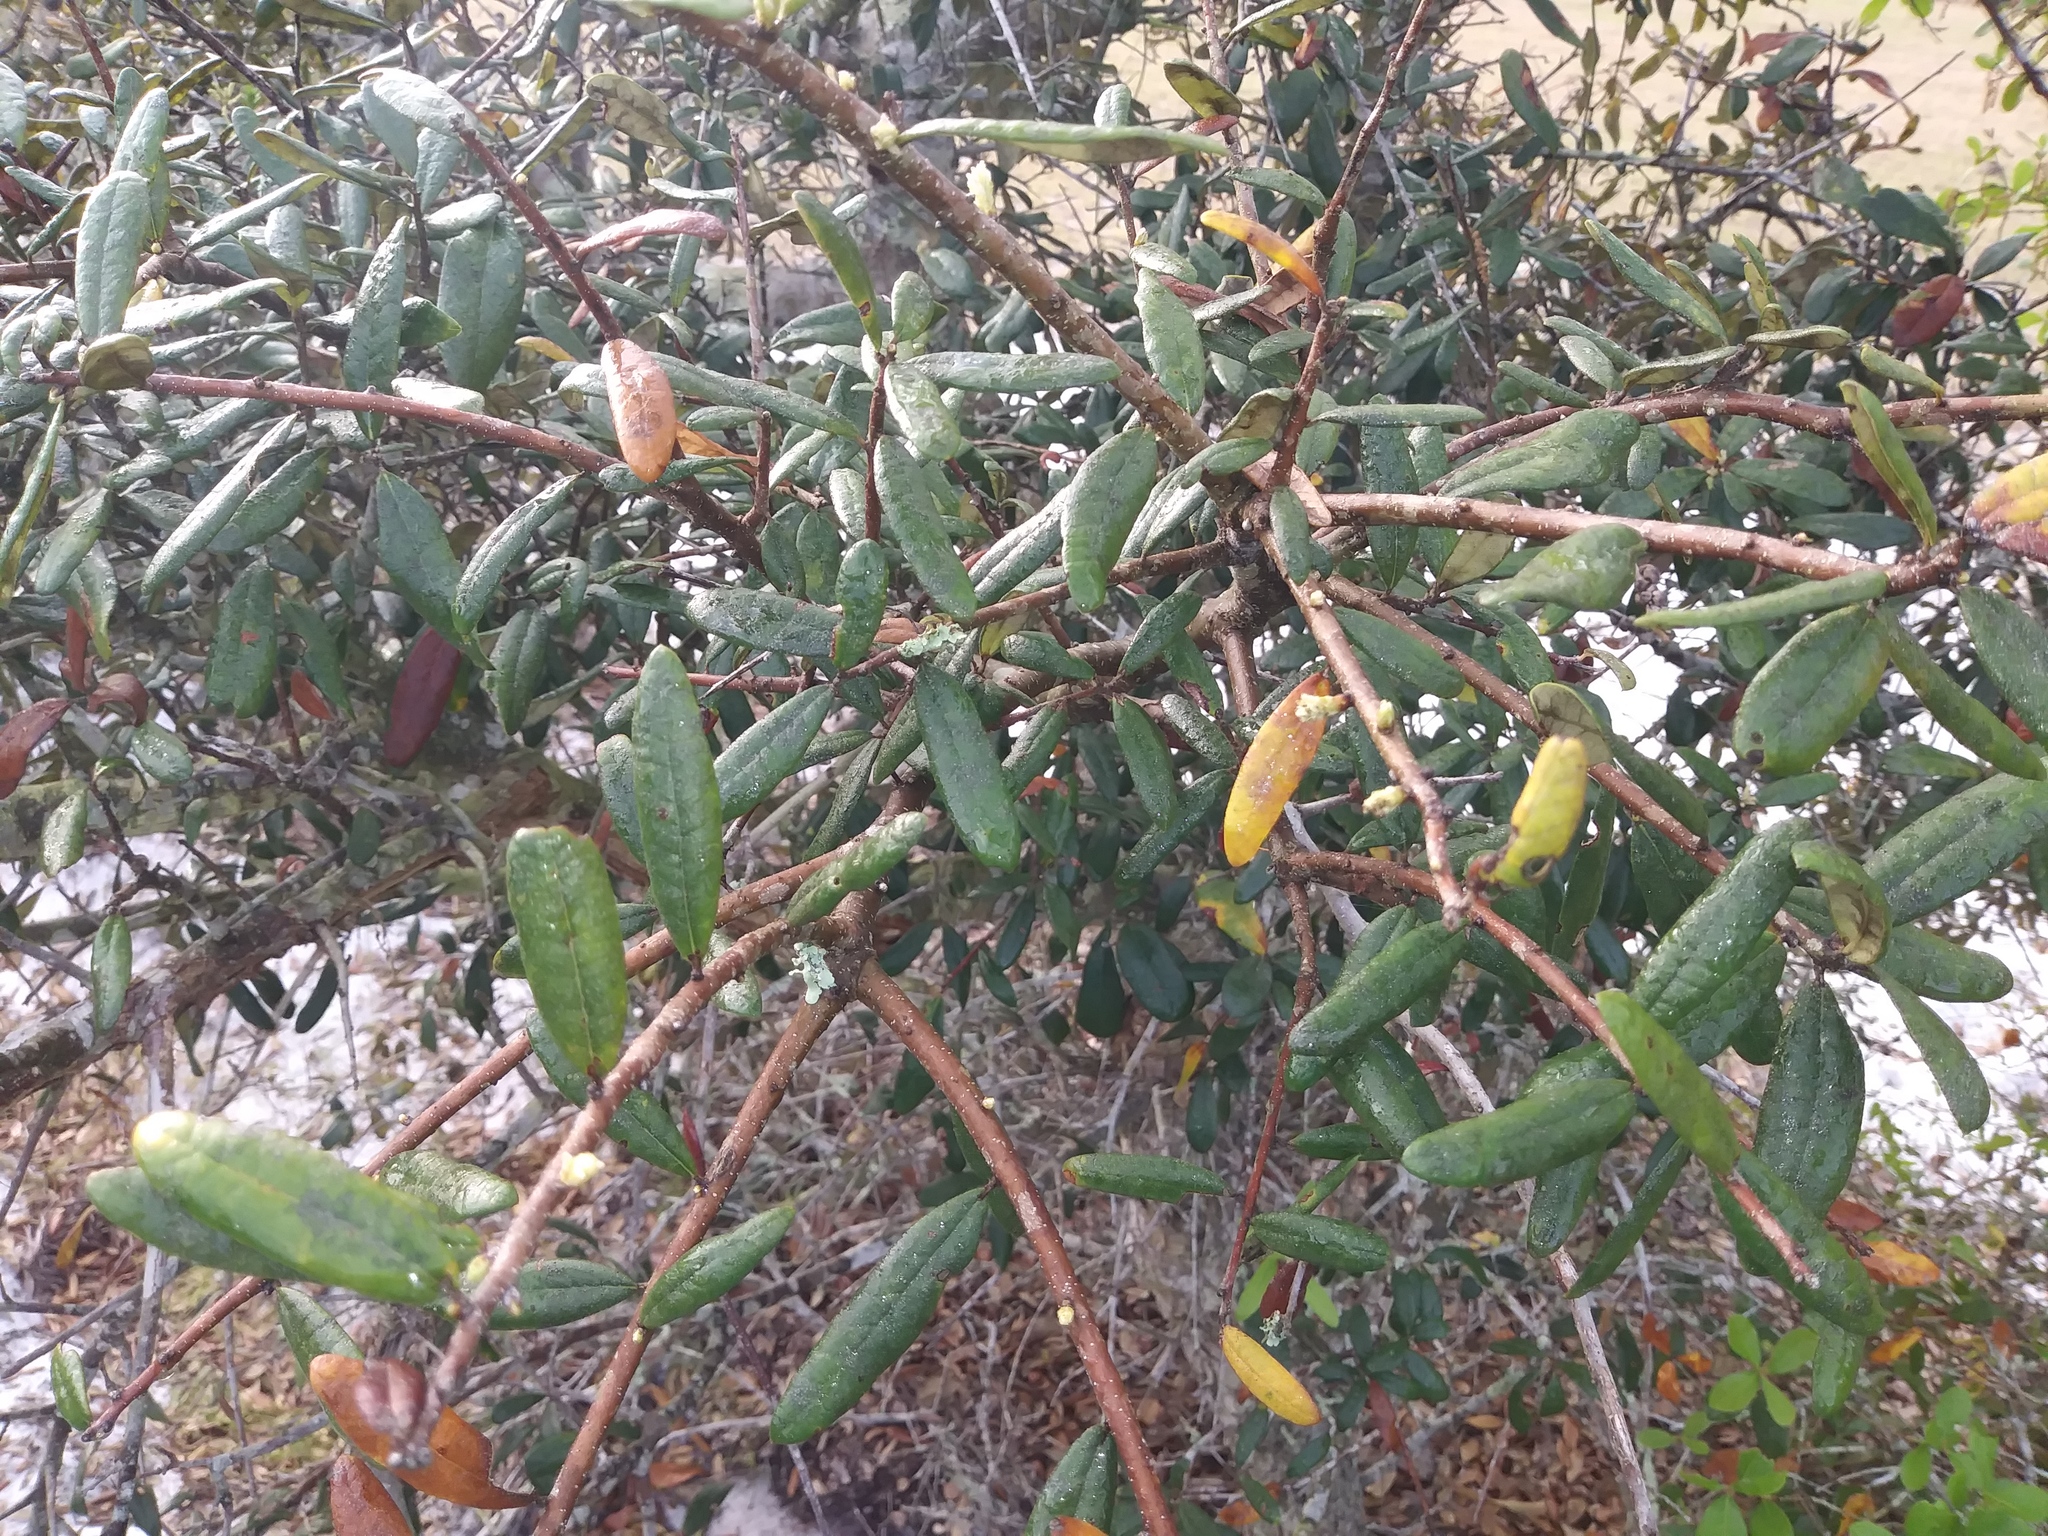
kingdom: Plantae
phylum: Tracheophyta
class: Magnoliopsida
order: Fagales
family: Fagaceae
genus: Quercus
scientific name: Quercus geminata
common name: Sand live oak
